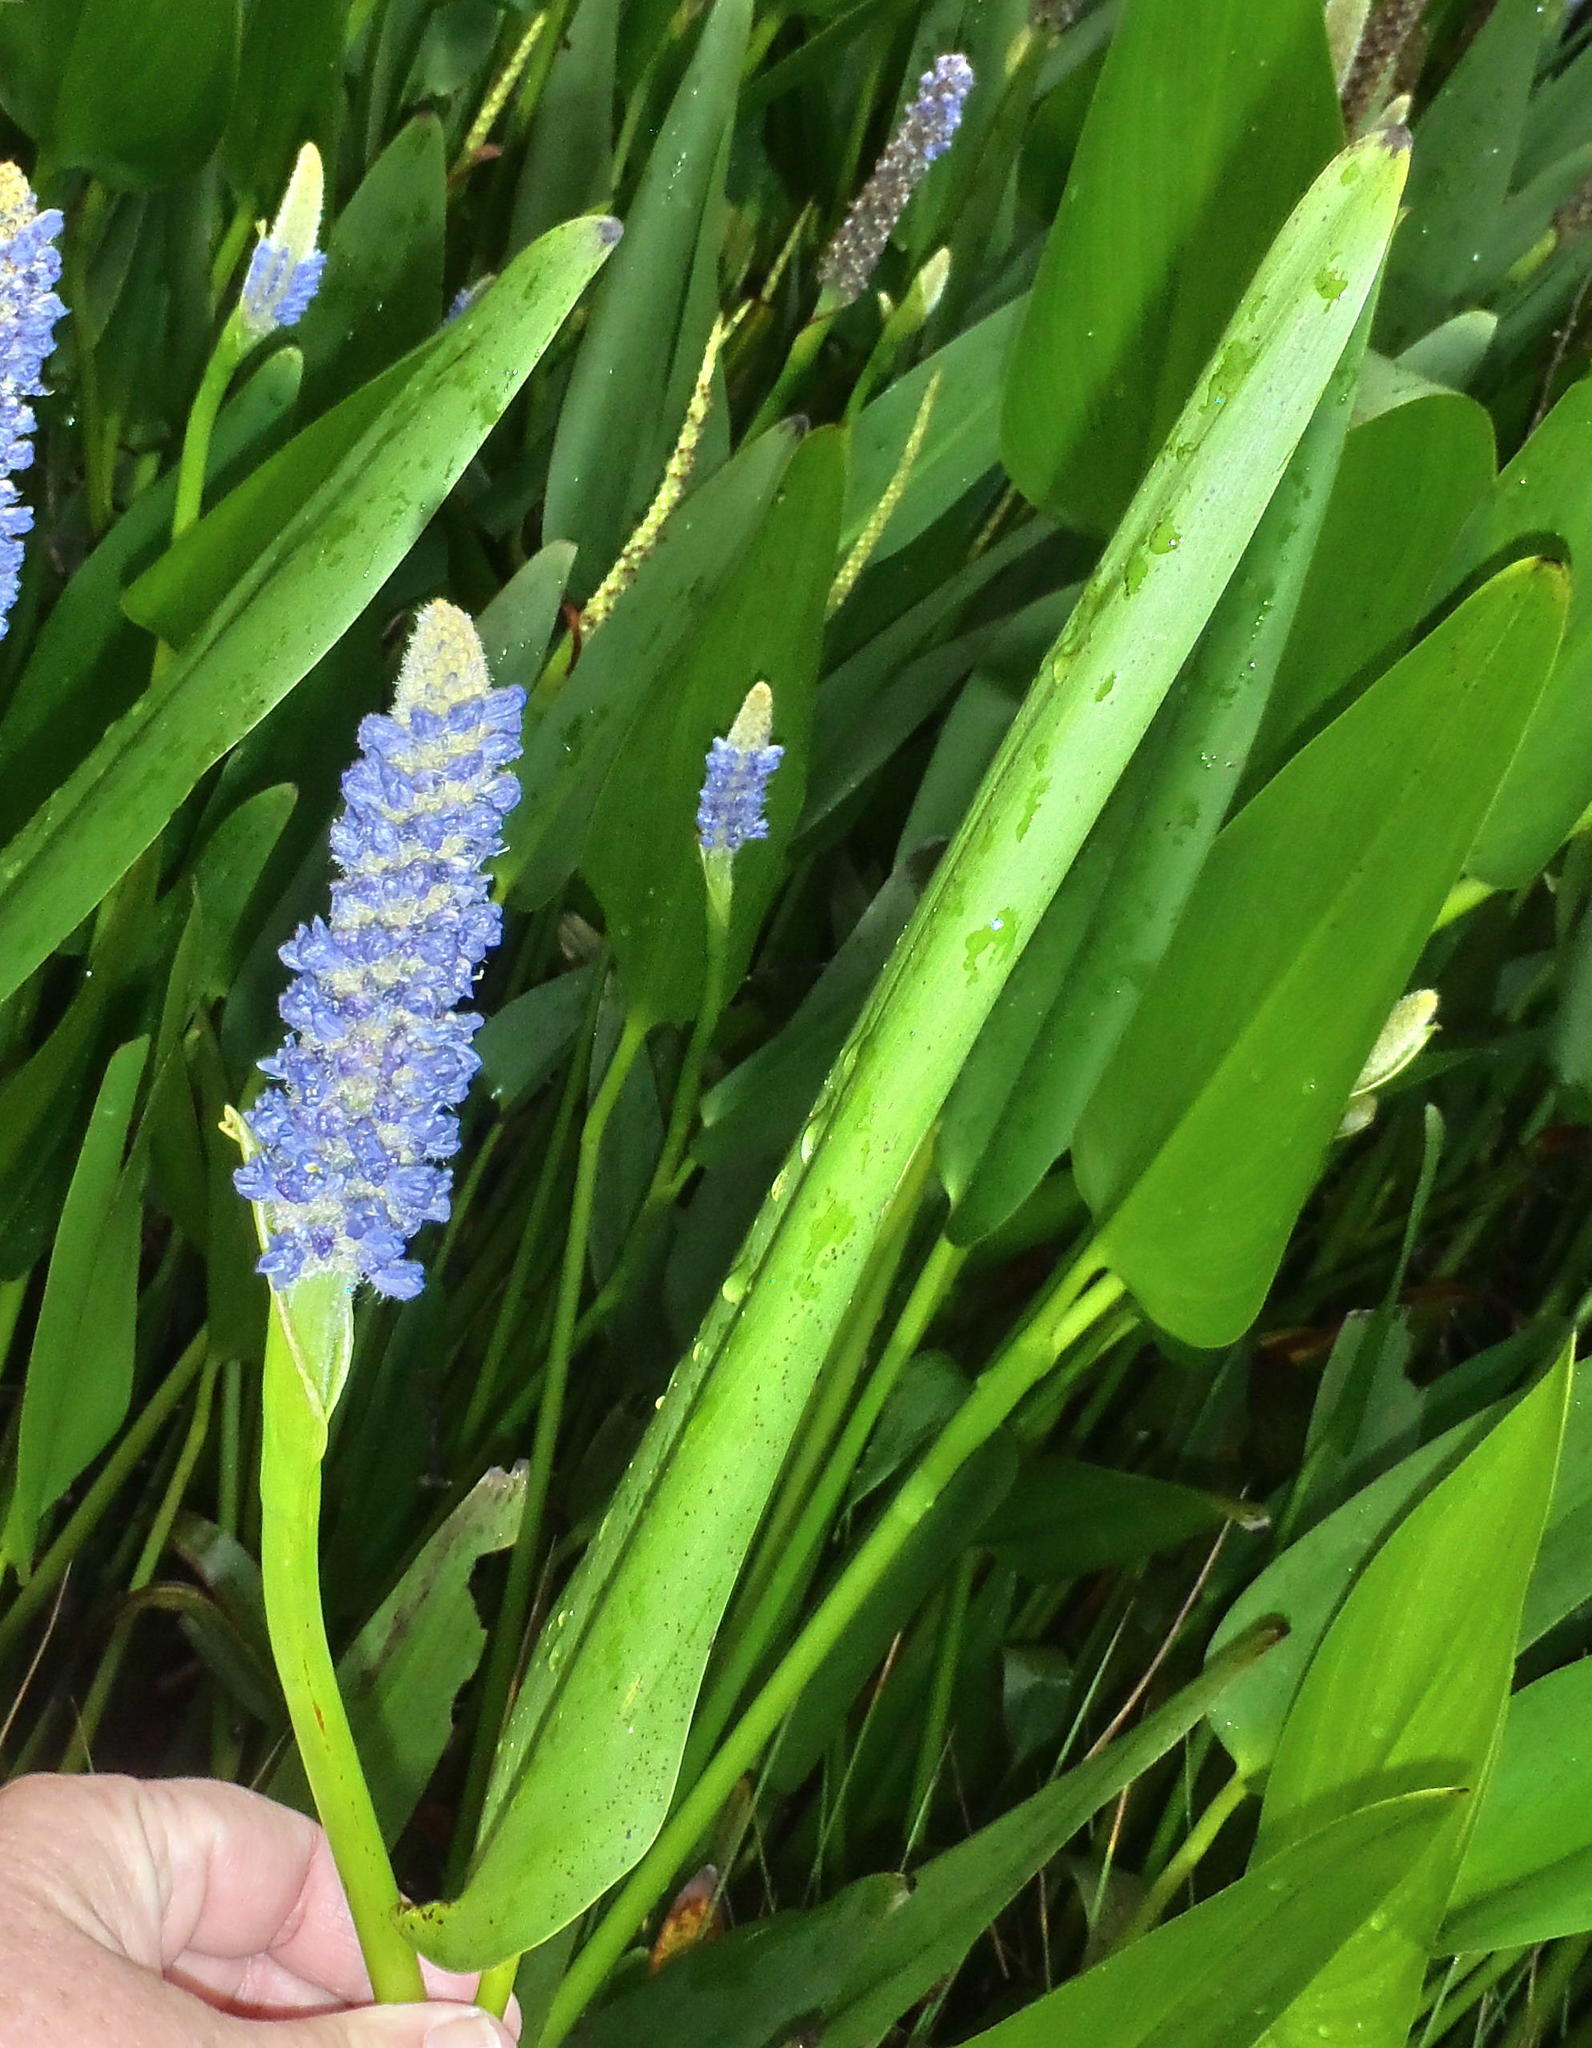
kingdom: Plantae
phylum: Tracheophyta
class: Liliopsida
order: Commelinales
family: Pontederiaceae
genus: Pontederia
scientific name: Pontederia cordata
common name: Pickerelweed
